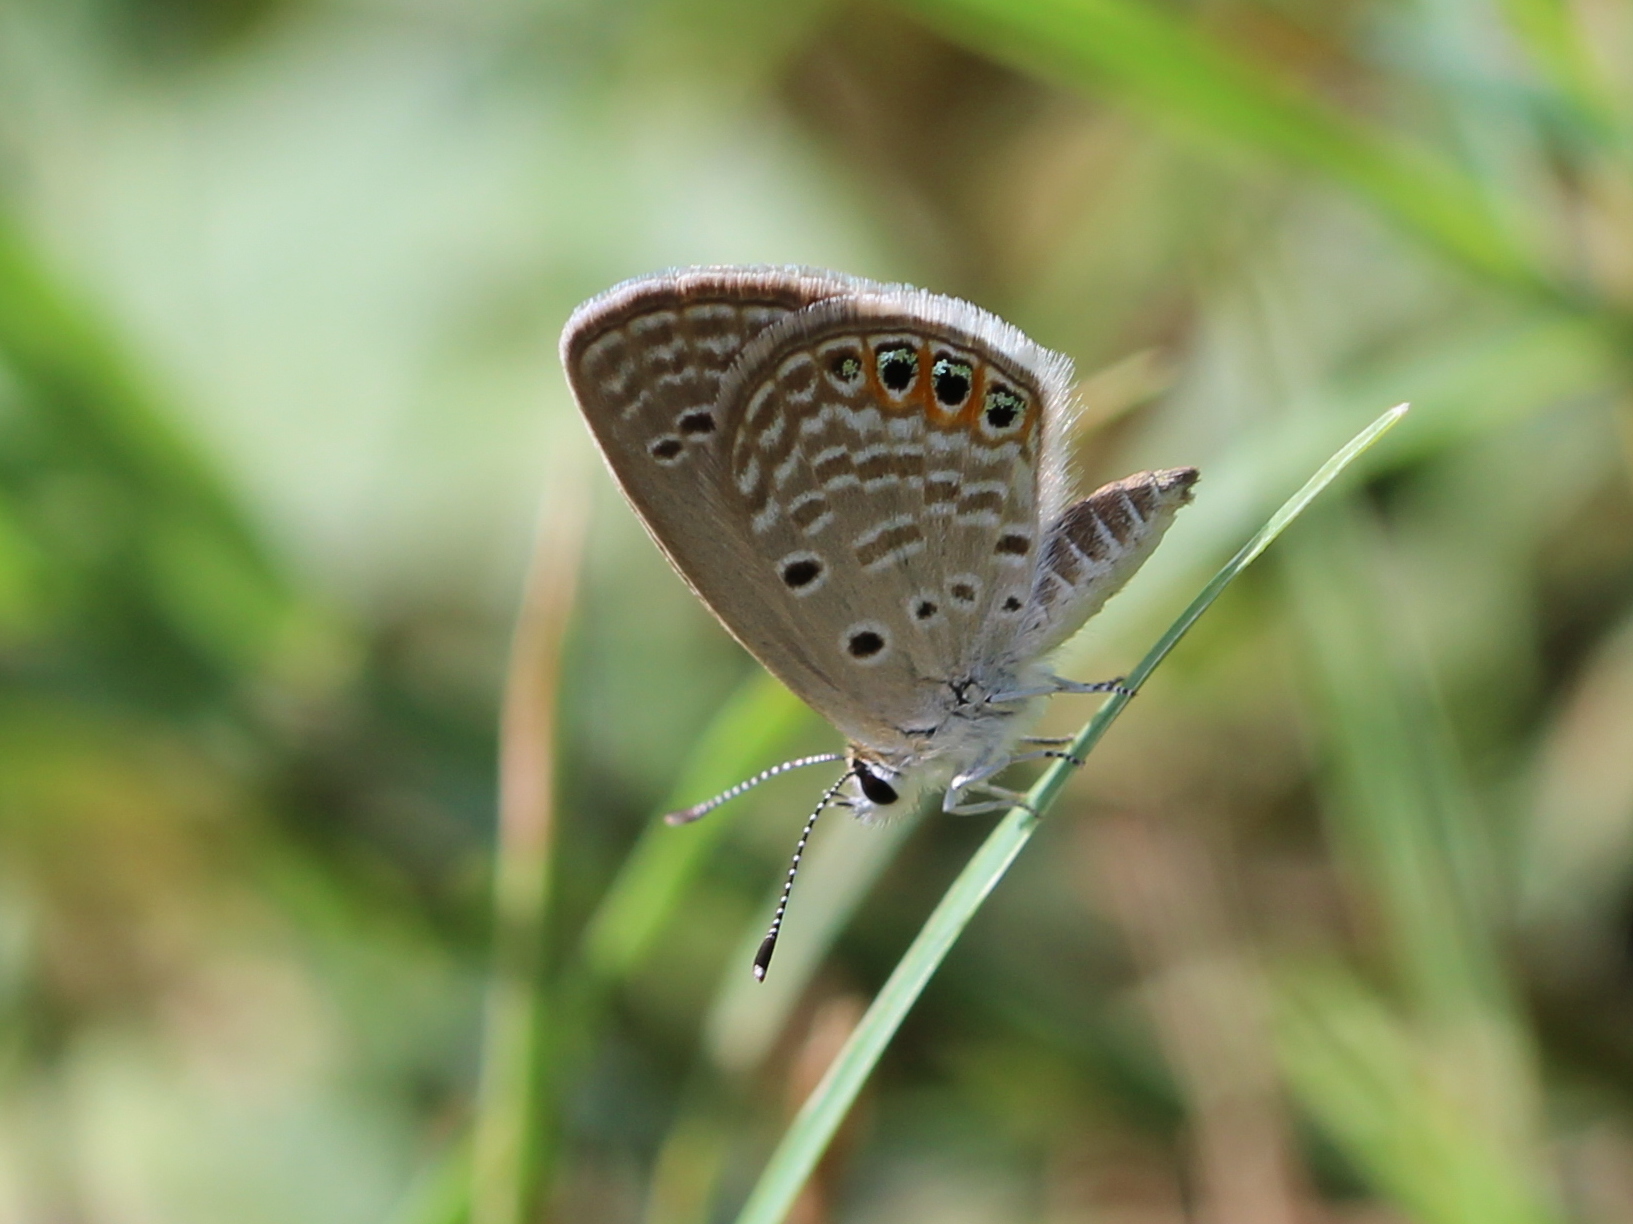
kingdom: Animalia
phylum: Arthropoda
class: Insecta
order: Lepidoptera
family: Lycaenidae
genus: Freyeria
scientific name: Freyeria trochylus
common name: Grass jewel
